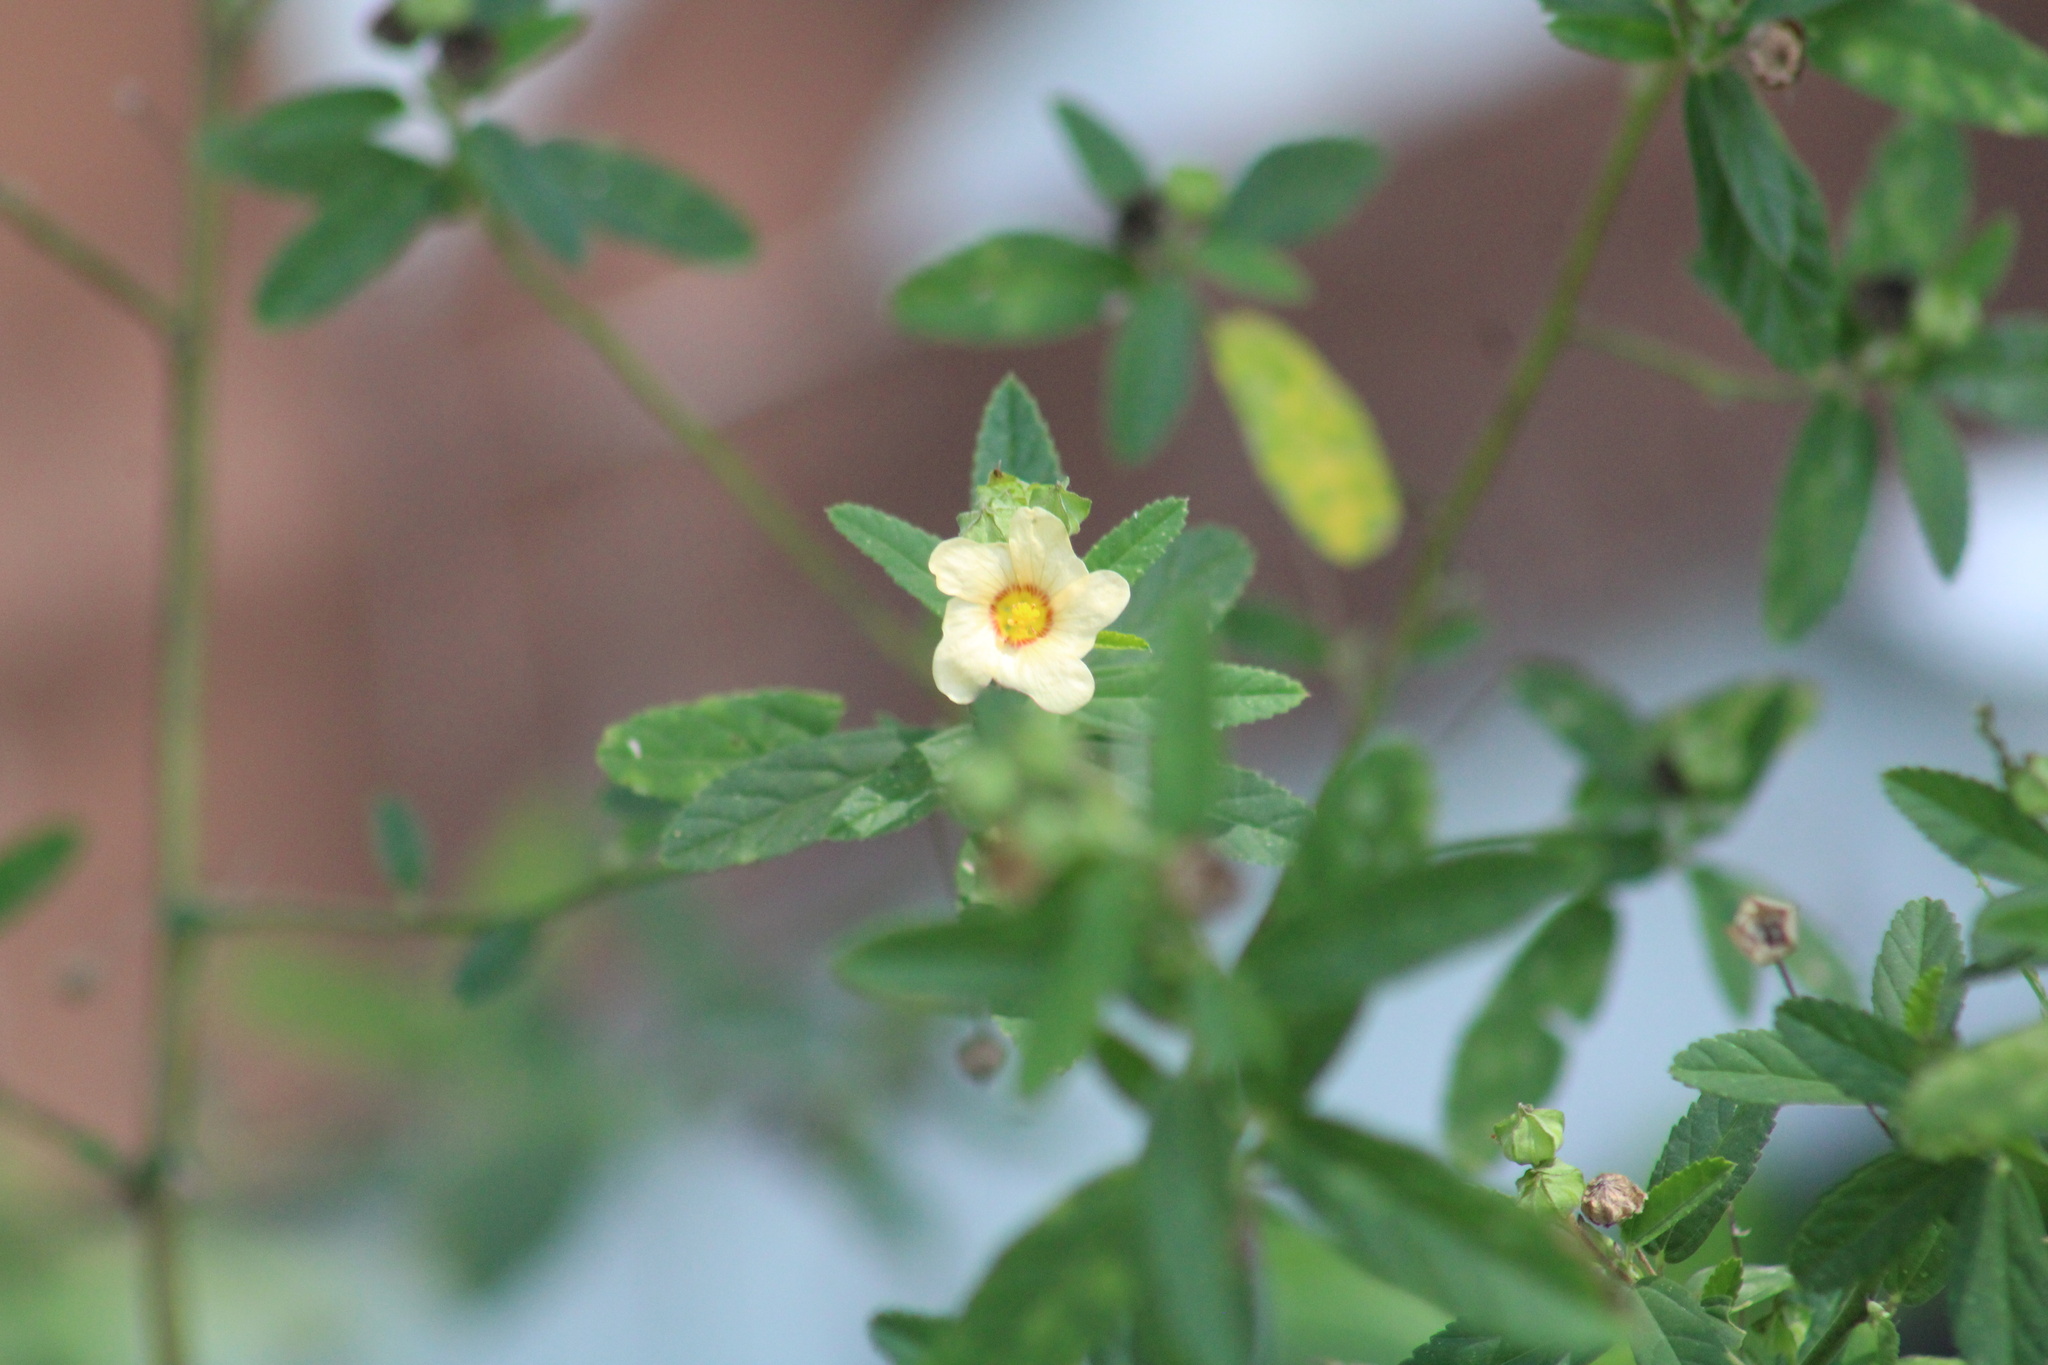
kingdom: Plantae
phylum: Tracheophyta
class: Magnoliopsida
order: Malvales
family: Malvaceae
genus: Sida
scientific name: Sida rhombifolia
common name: Queensland-hemp
